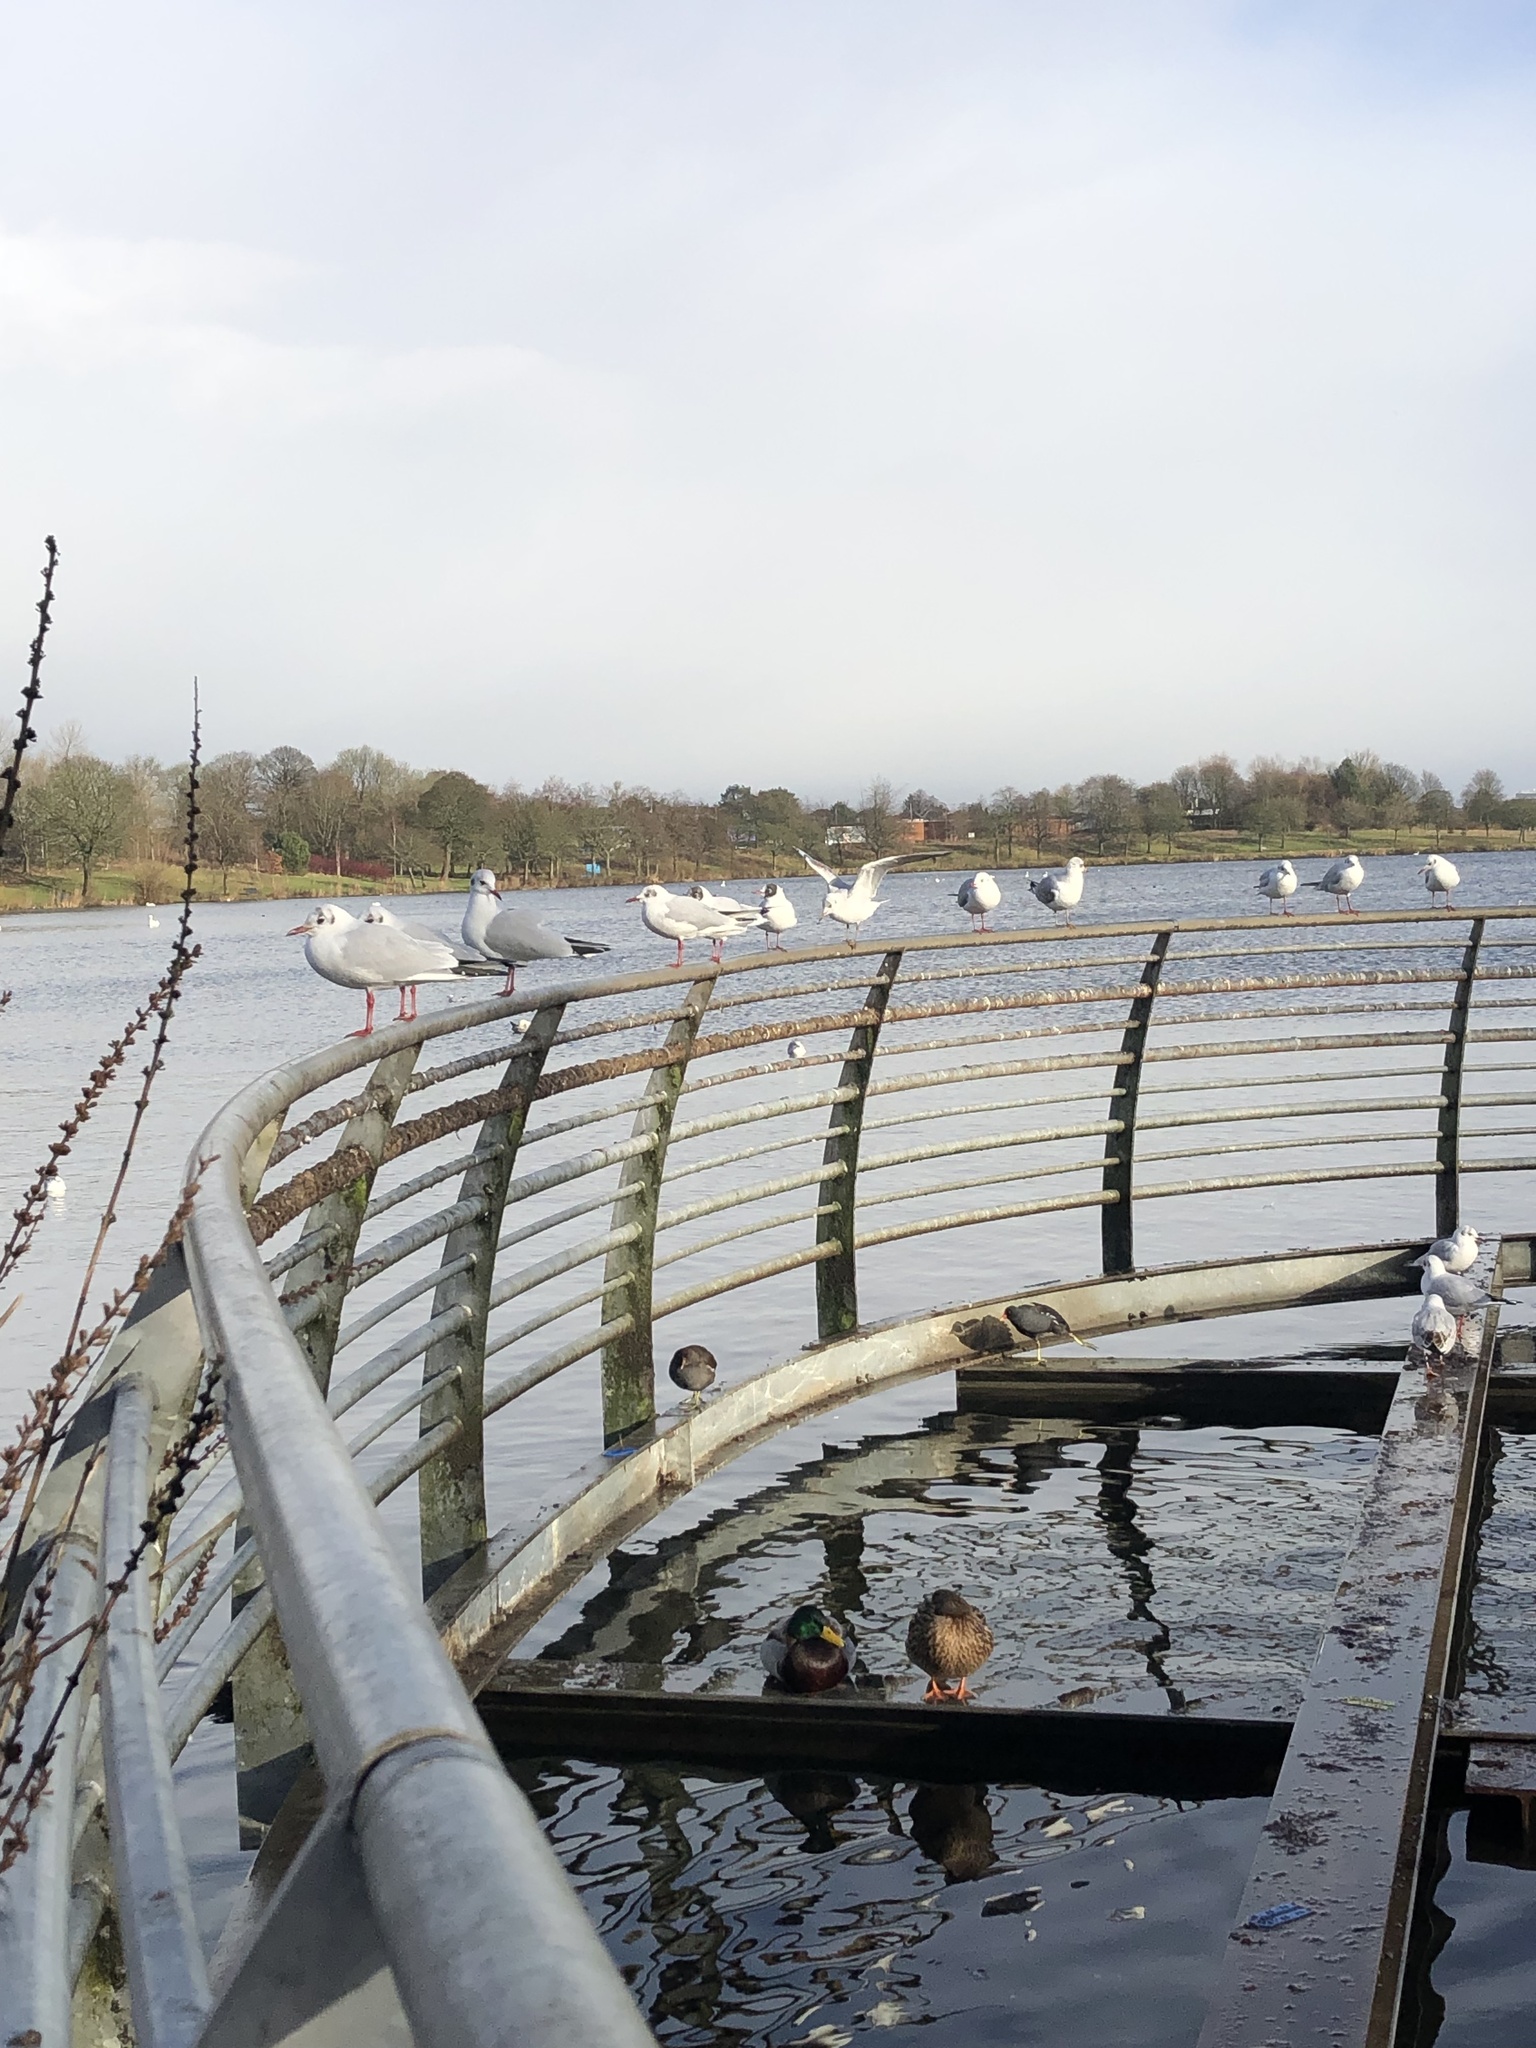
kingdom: Animalia
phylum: Chordata
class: Aves
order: Charadriiformes
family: Laridae
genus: Chroicocephalus
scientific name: Chroicocephalus ridibundus
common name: Black-headed gull
